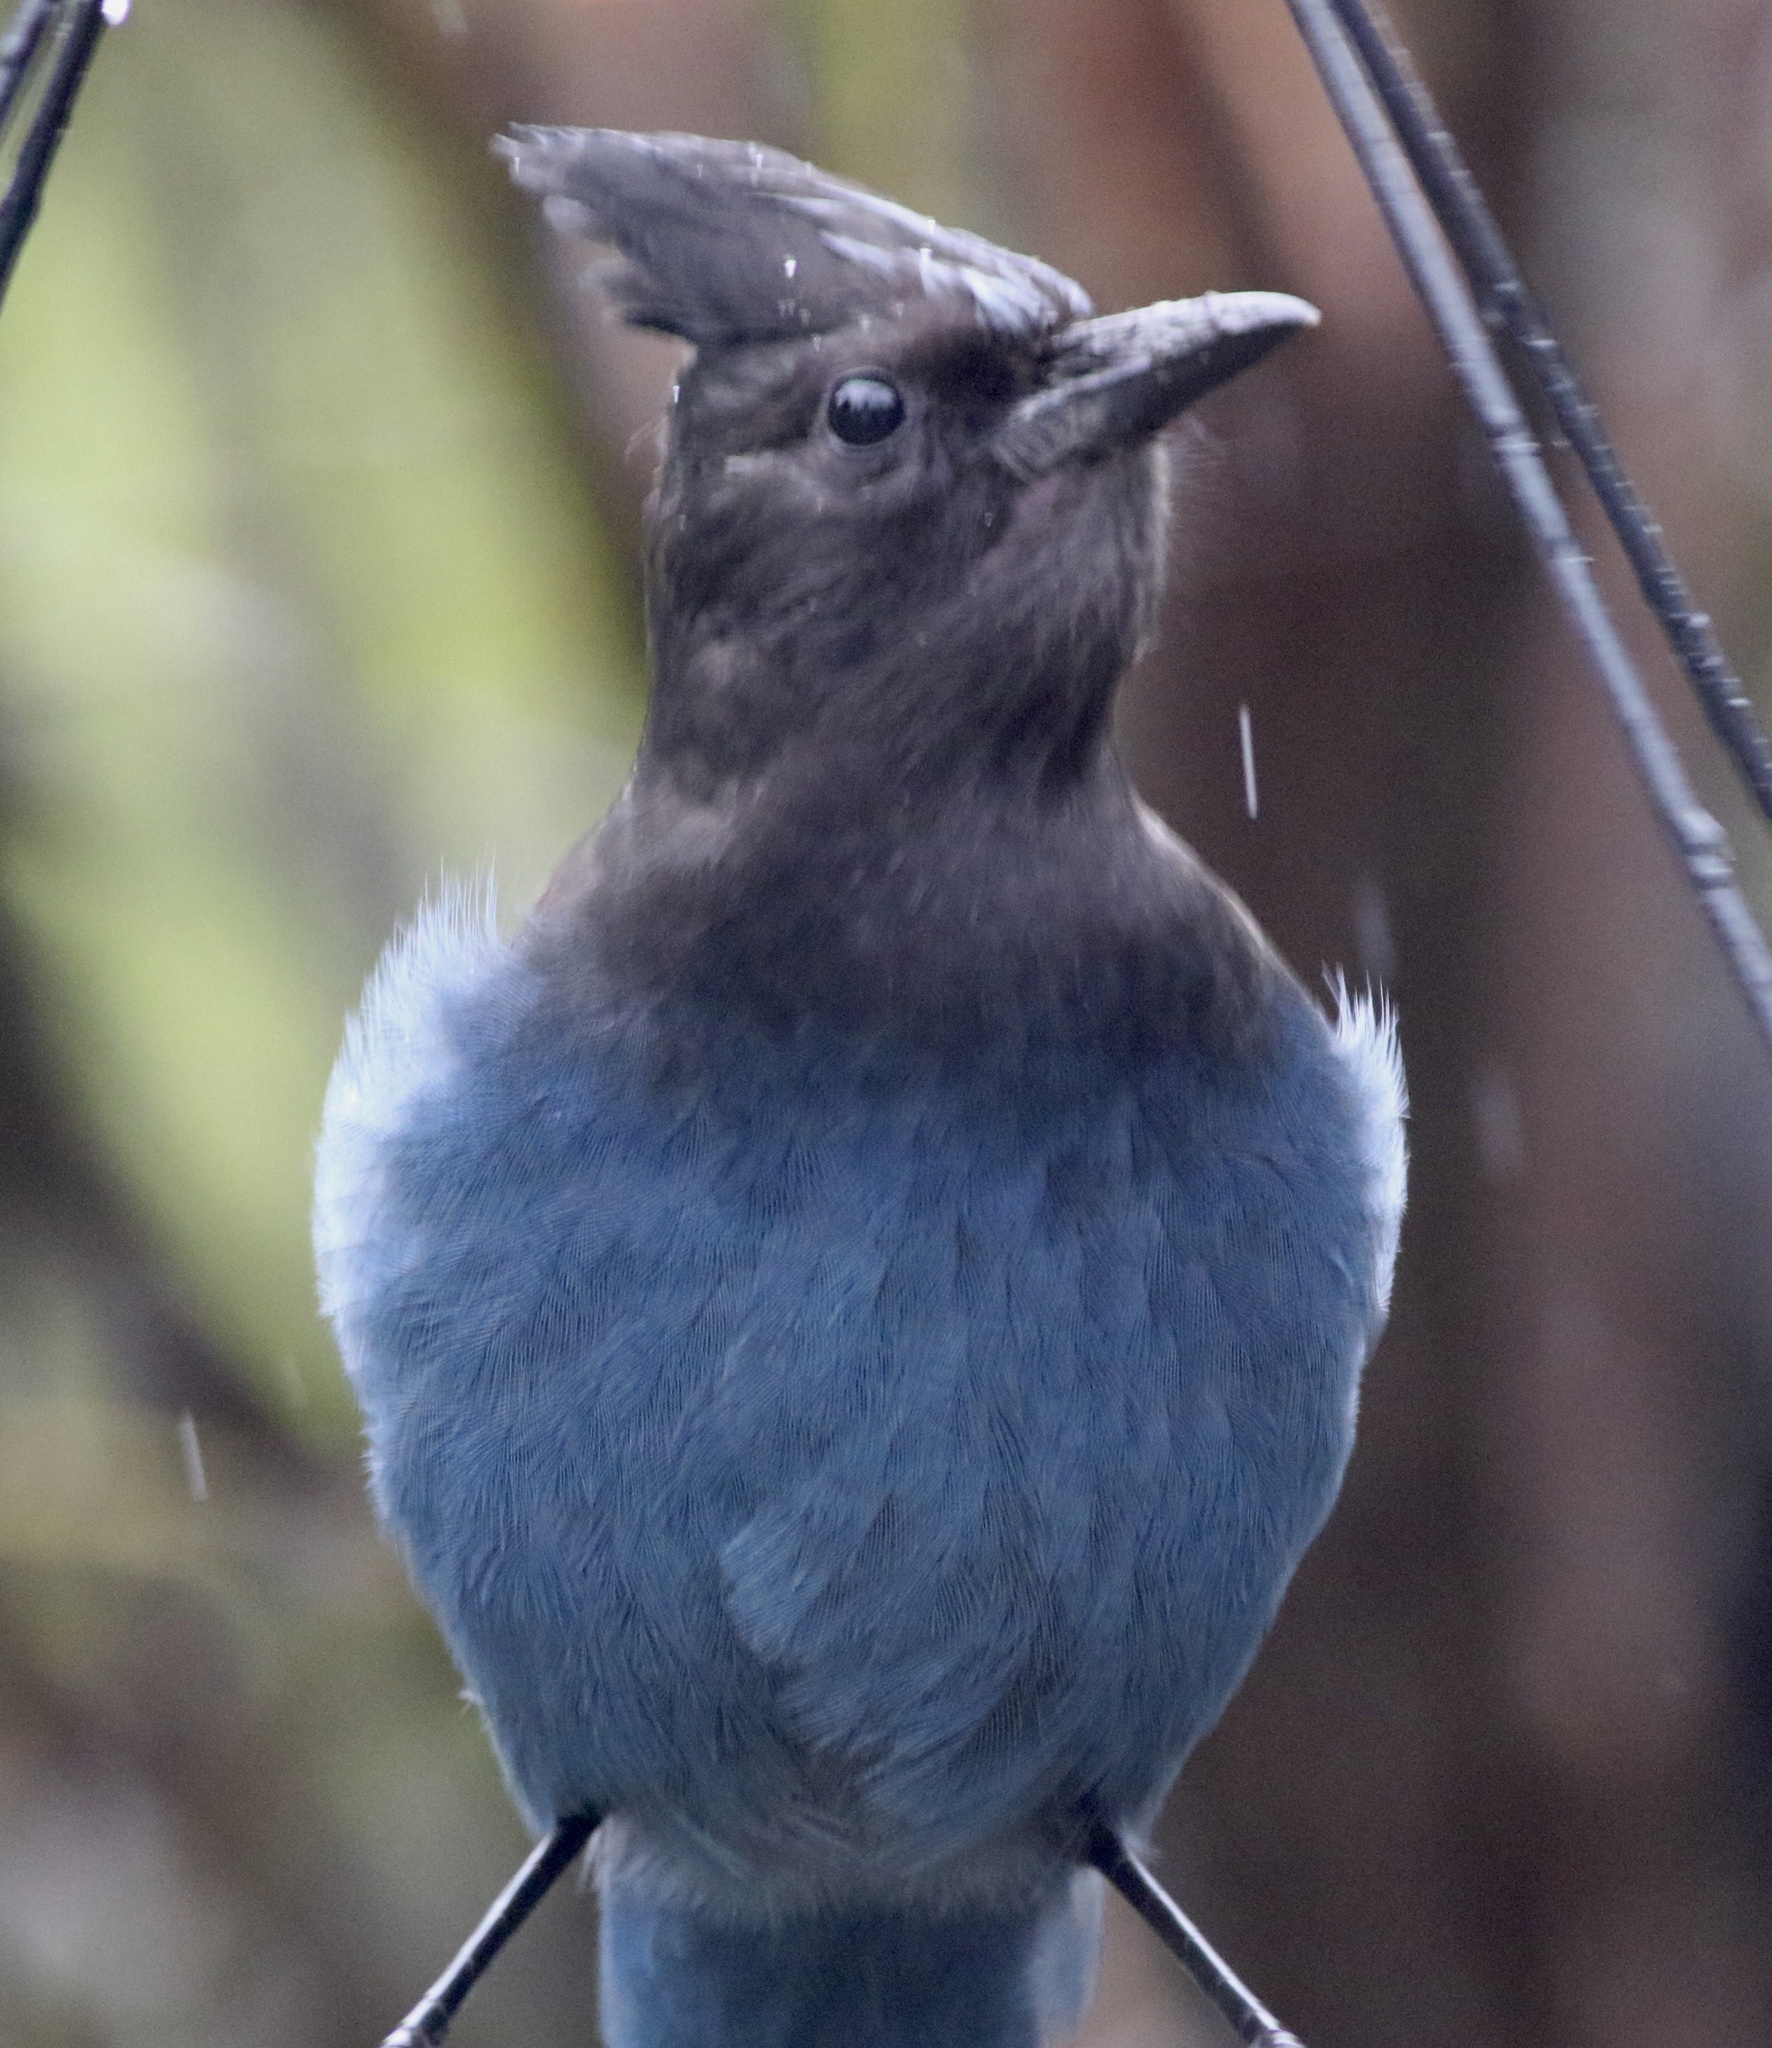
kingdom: Animalia
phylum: Chordata
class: Aves
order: Passeriformes
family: Corvidae
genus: Cyanocitta
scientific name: Cyanocitta stelleri
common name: Steller's jay
